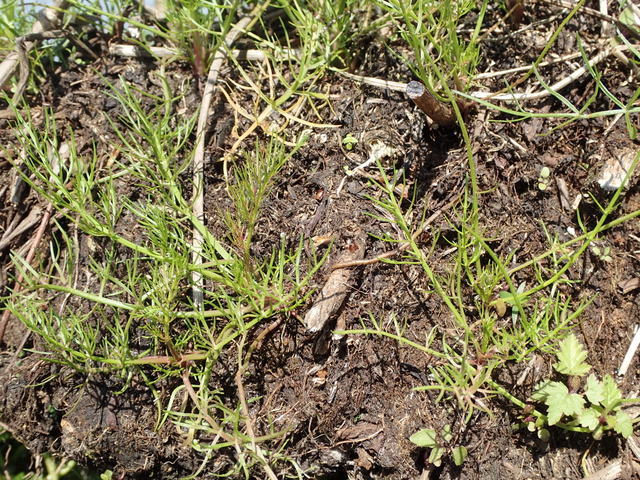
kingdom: Plantae
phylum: Tracheophyta
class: Magnoliopsida
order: Apiales
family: Apiaceae
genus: Cyclospermum
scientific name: Cyclospermum leptophyllum
